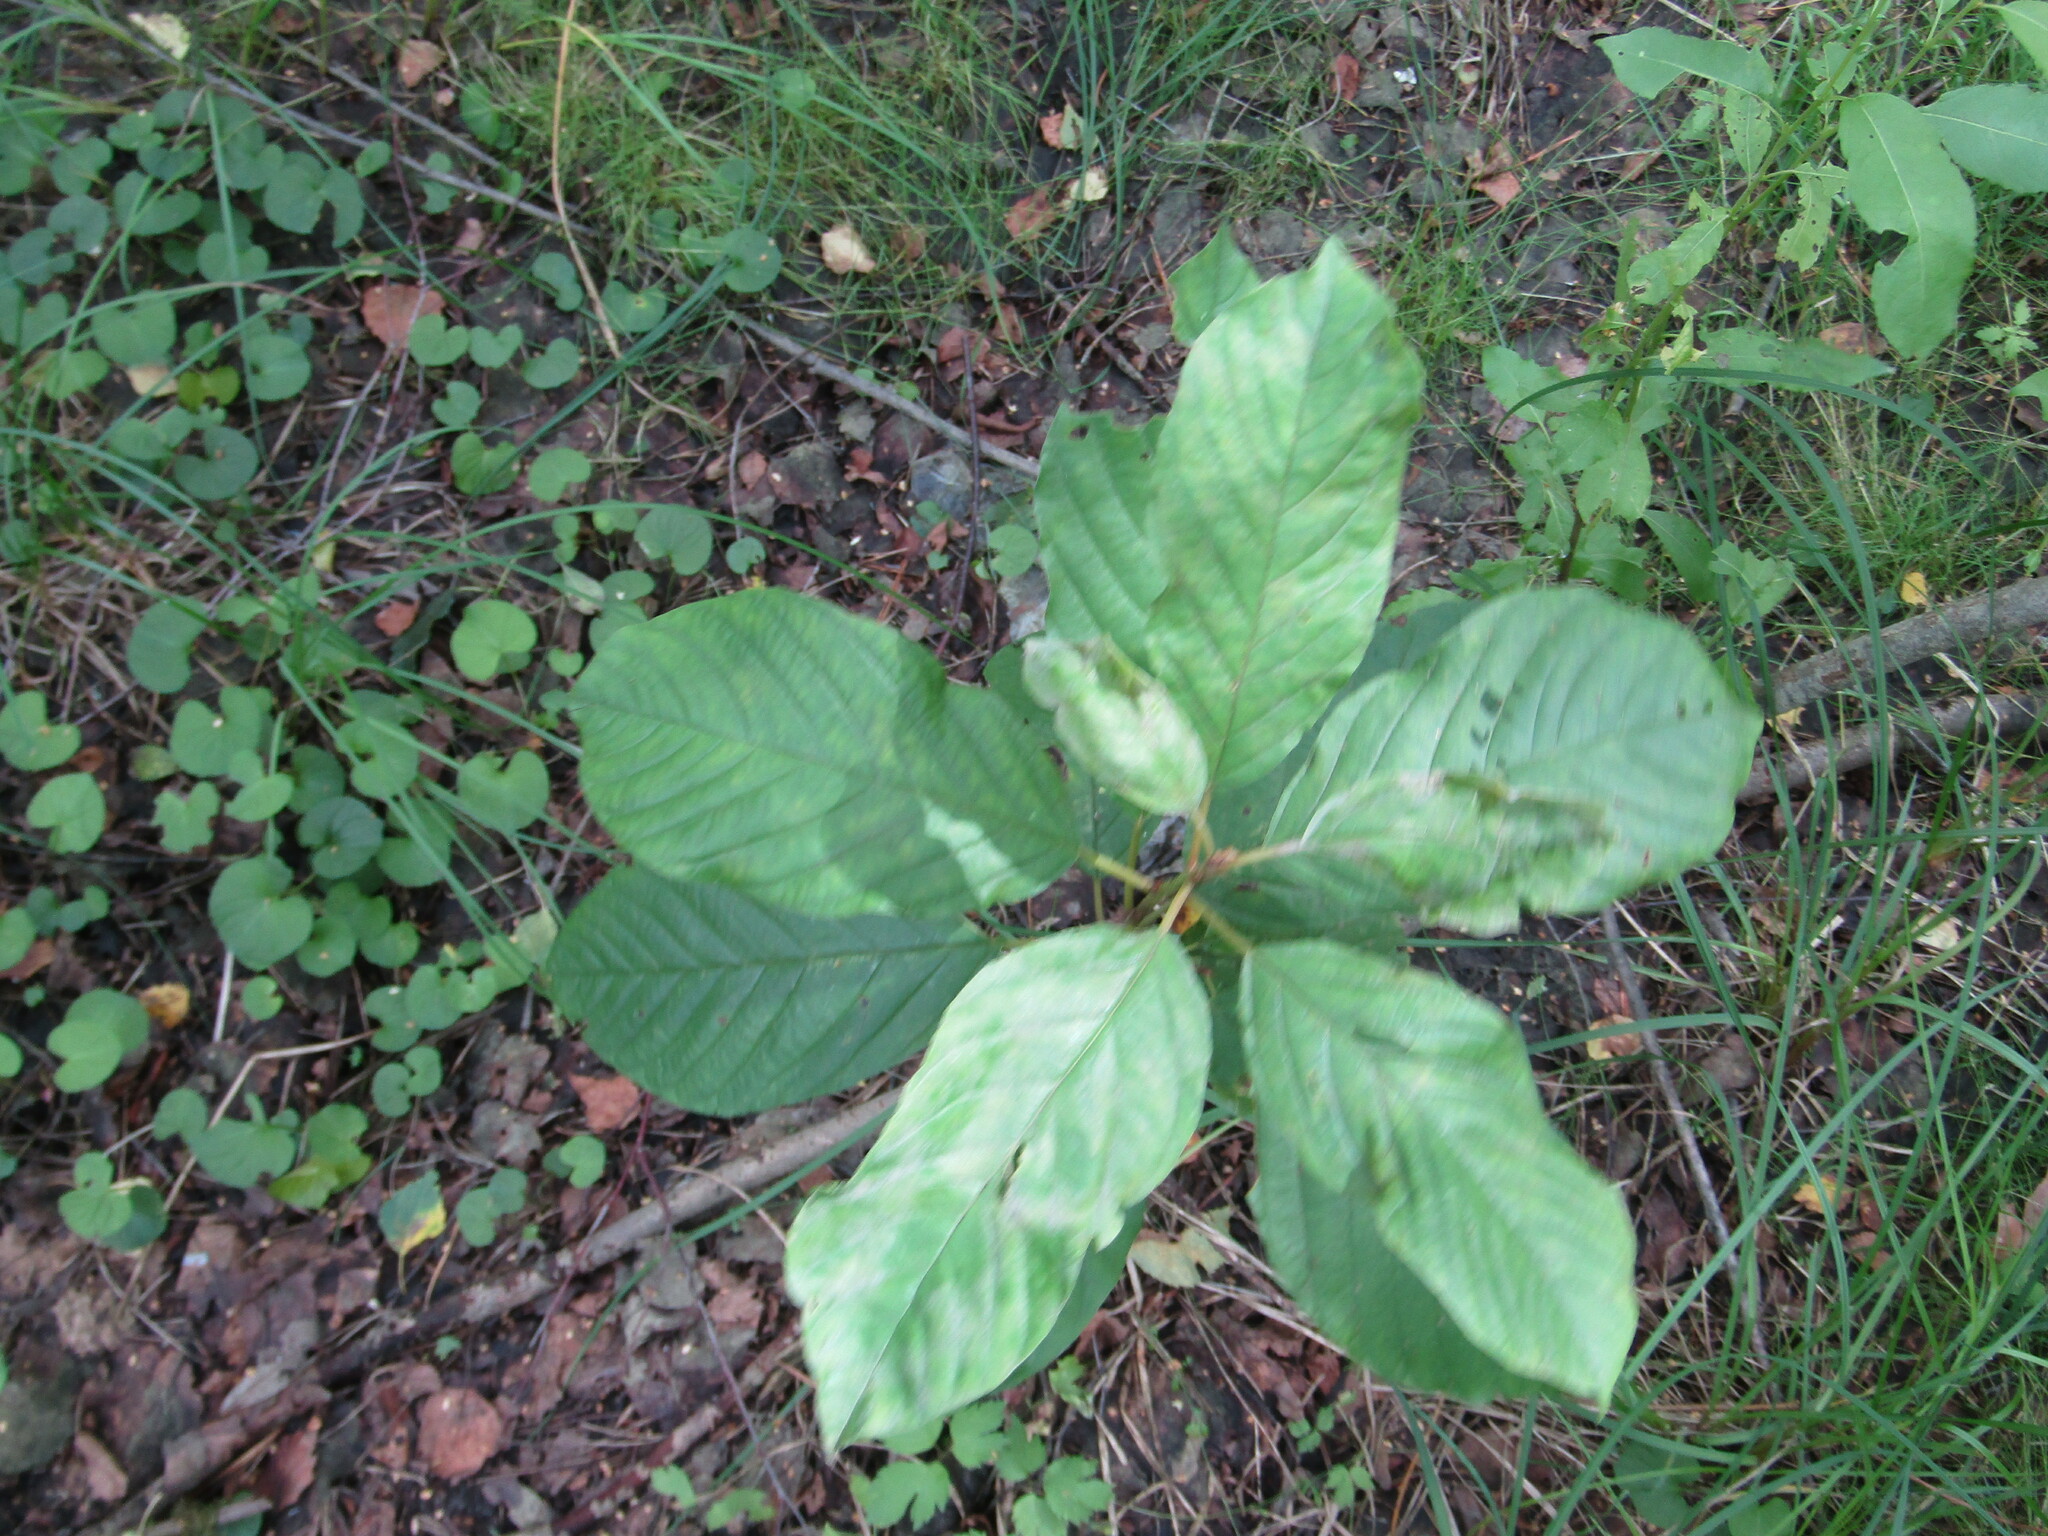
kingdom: Plantae
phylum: Tracheophyta
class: Magnoliopsida
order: Rosales
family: Rhamnaceae
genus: Frangula
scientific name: Frangula alnus
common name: Alder buckthorn
